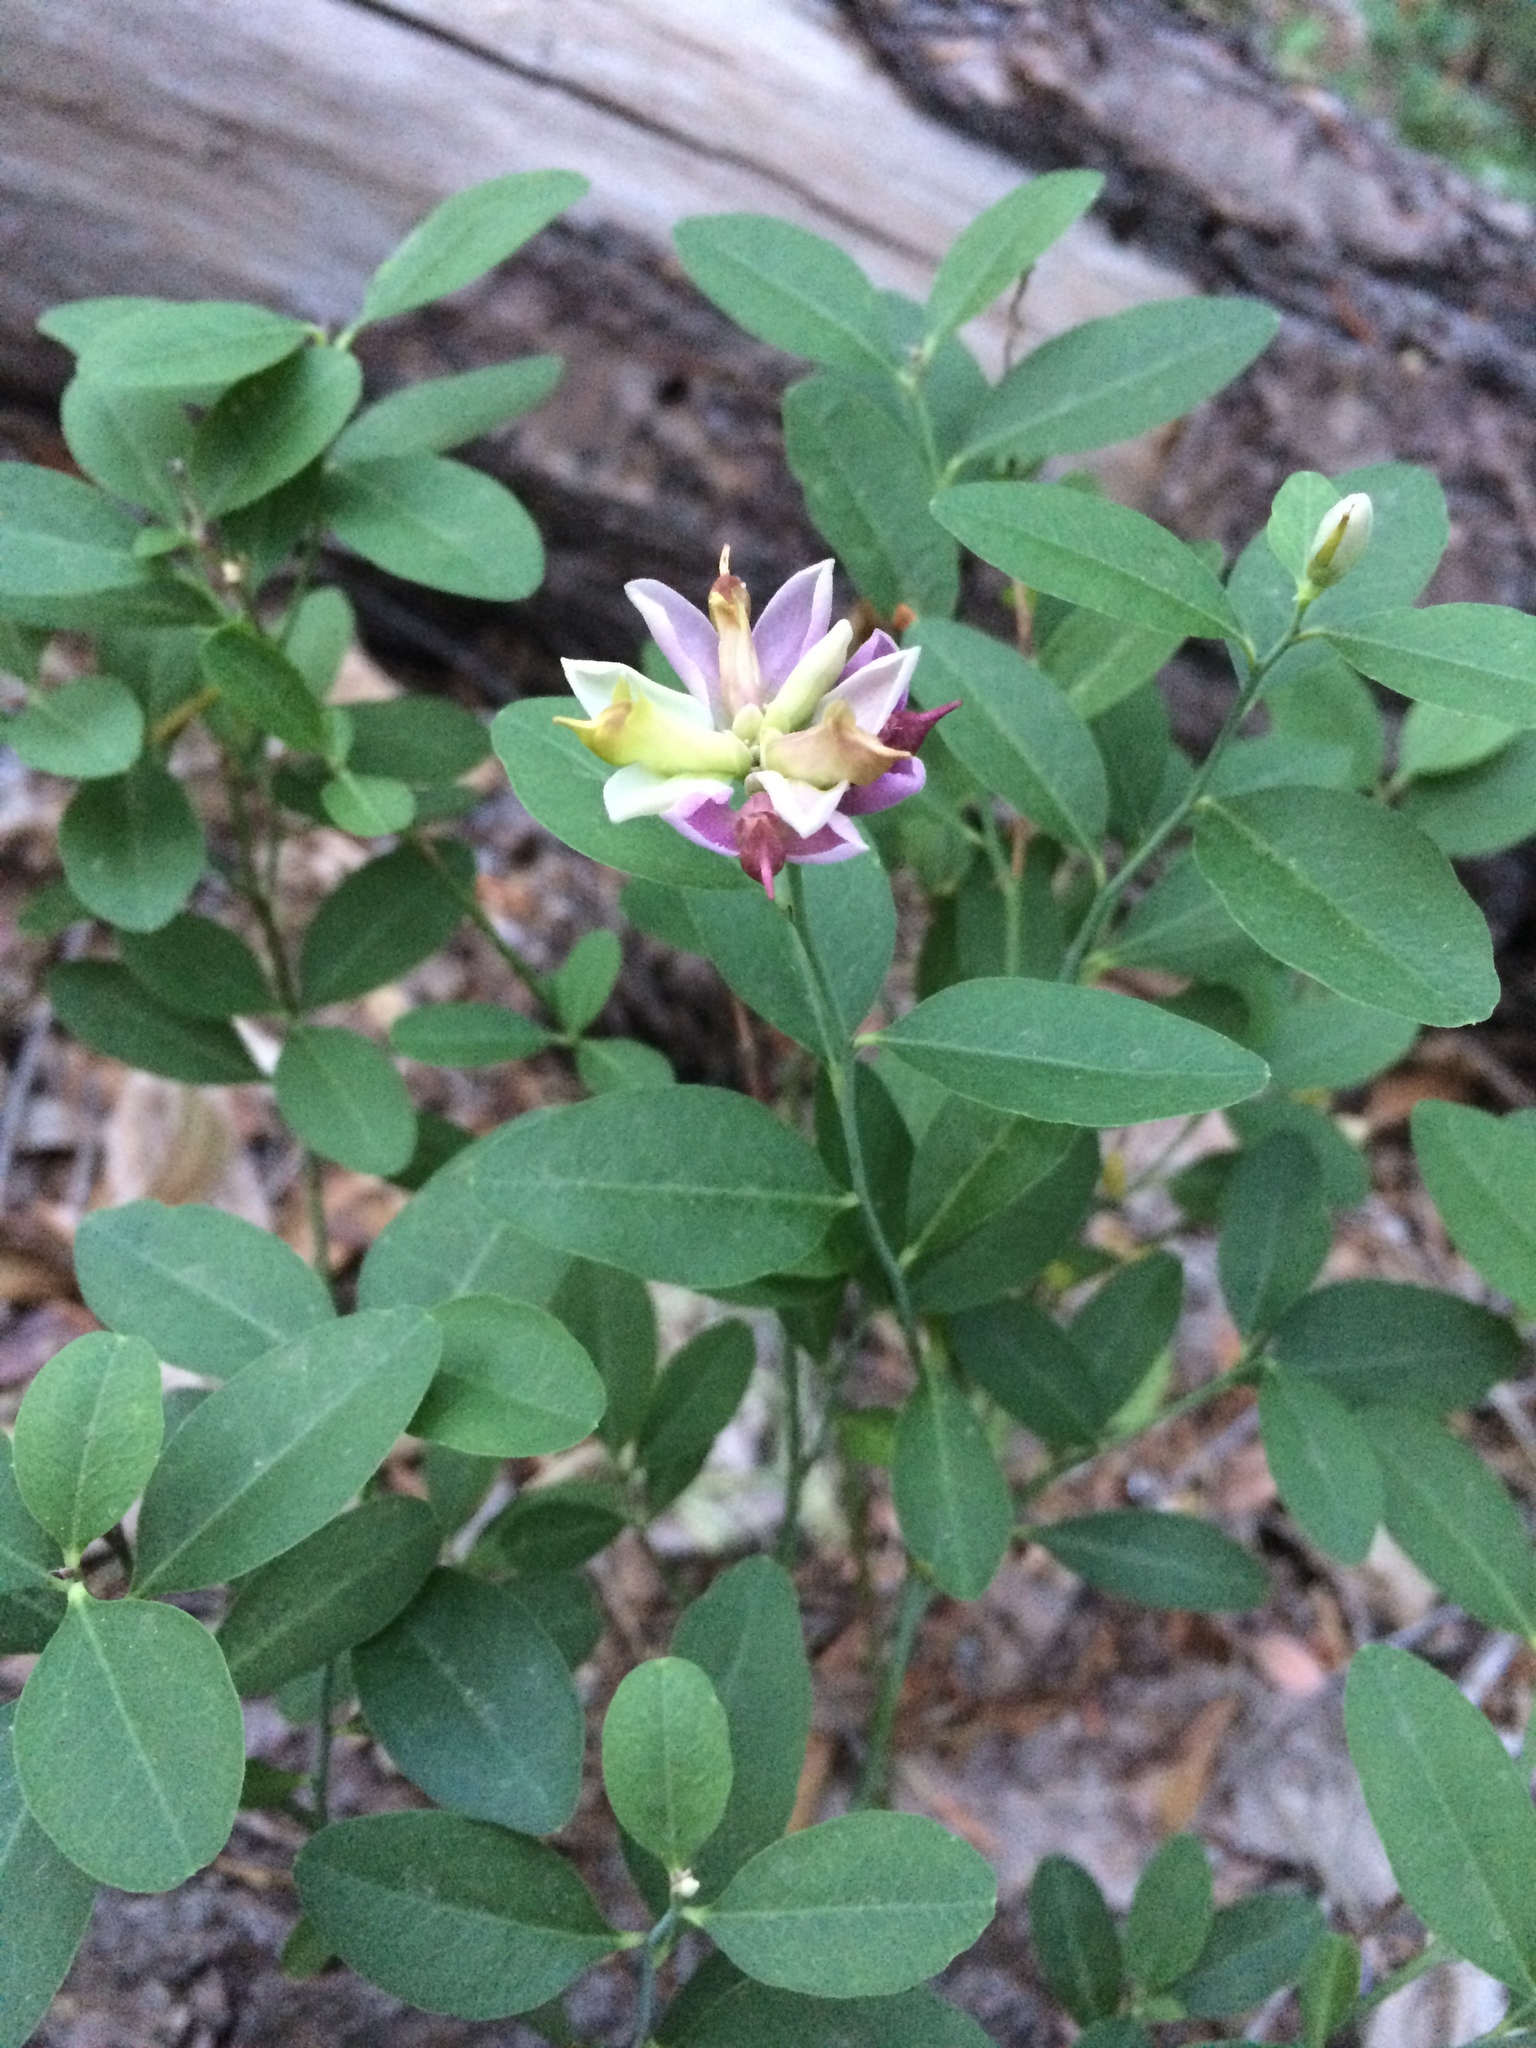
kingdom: Plantae
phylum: Tracheophyta
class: Magnoliopsida
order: Fabales
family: Polygalaceae
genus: Rhinotropis
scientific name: Rhinotropis cornuta
